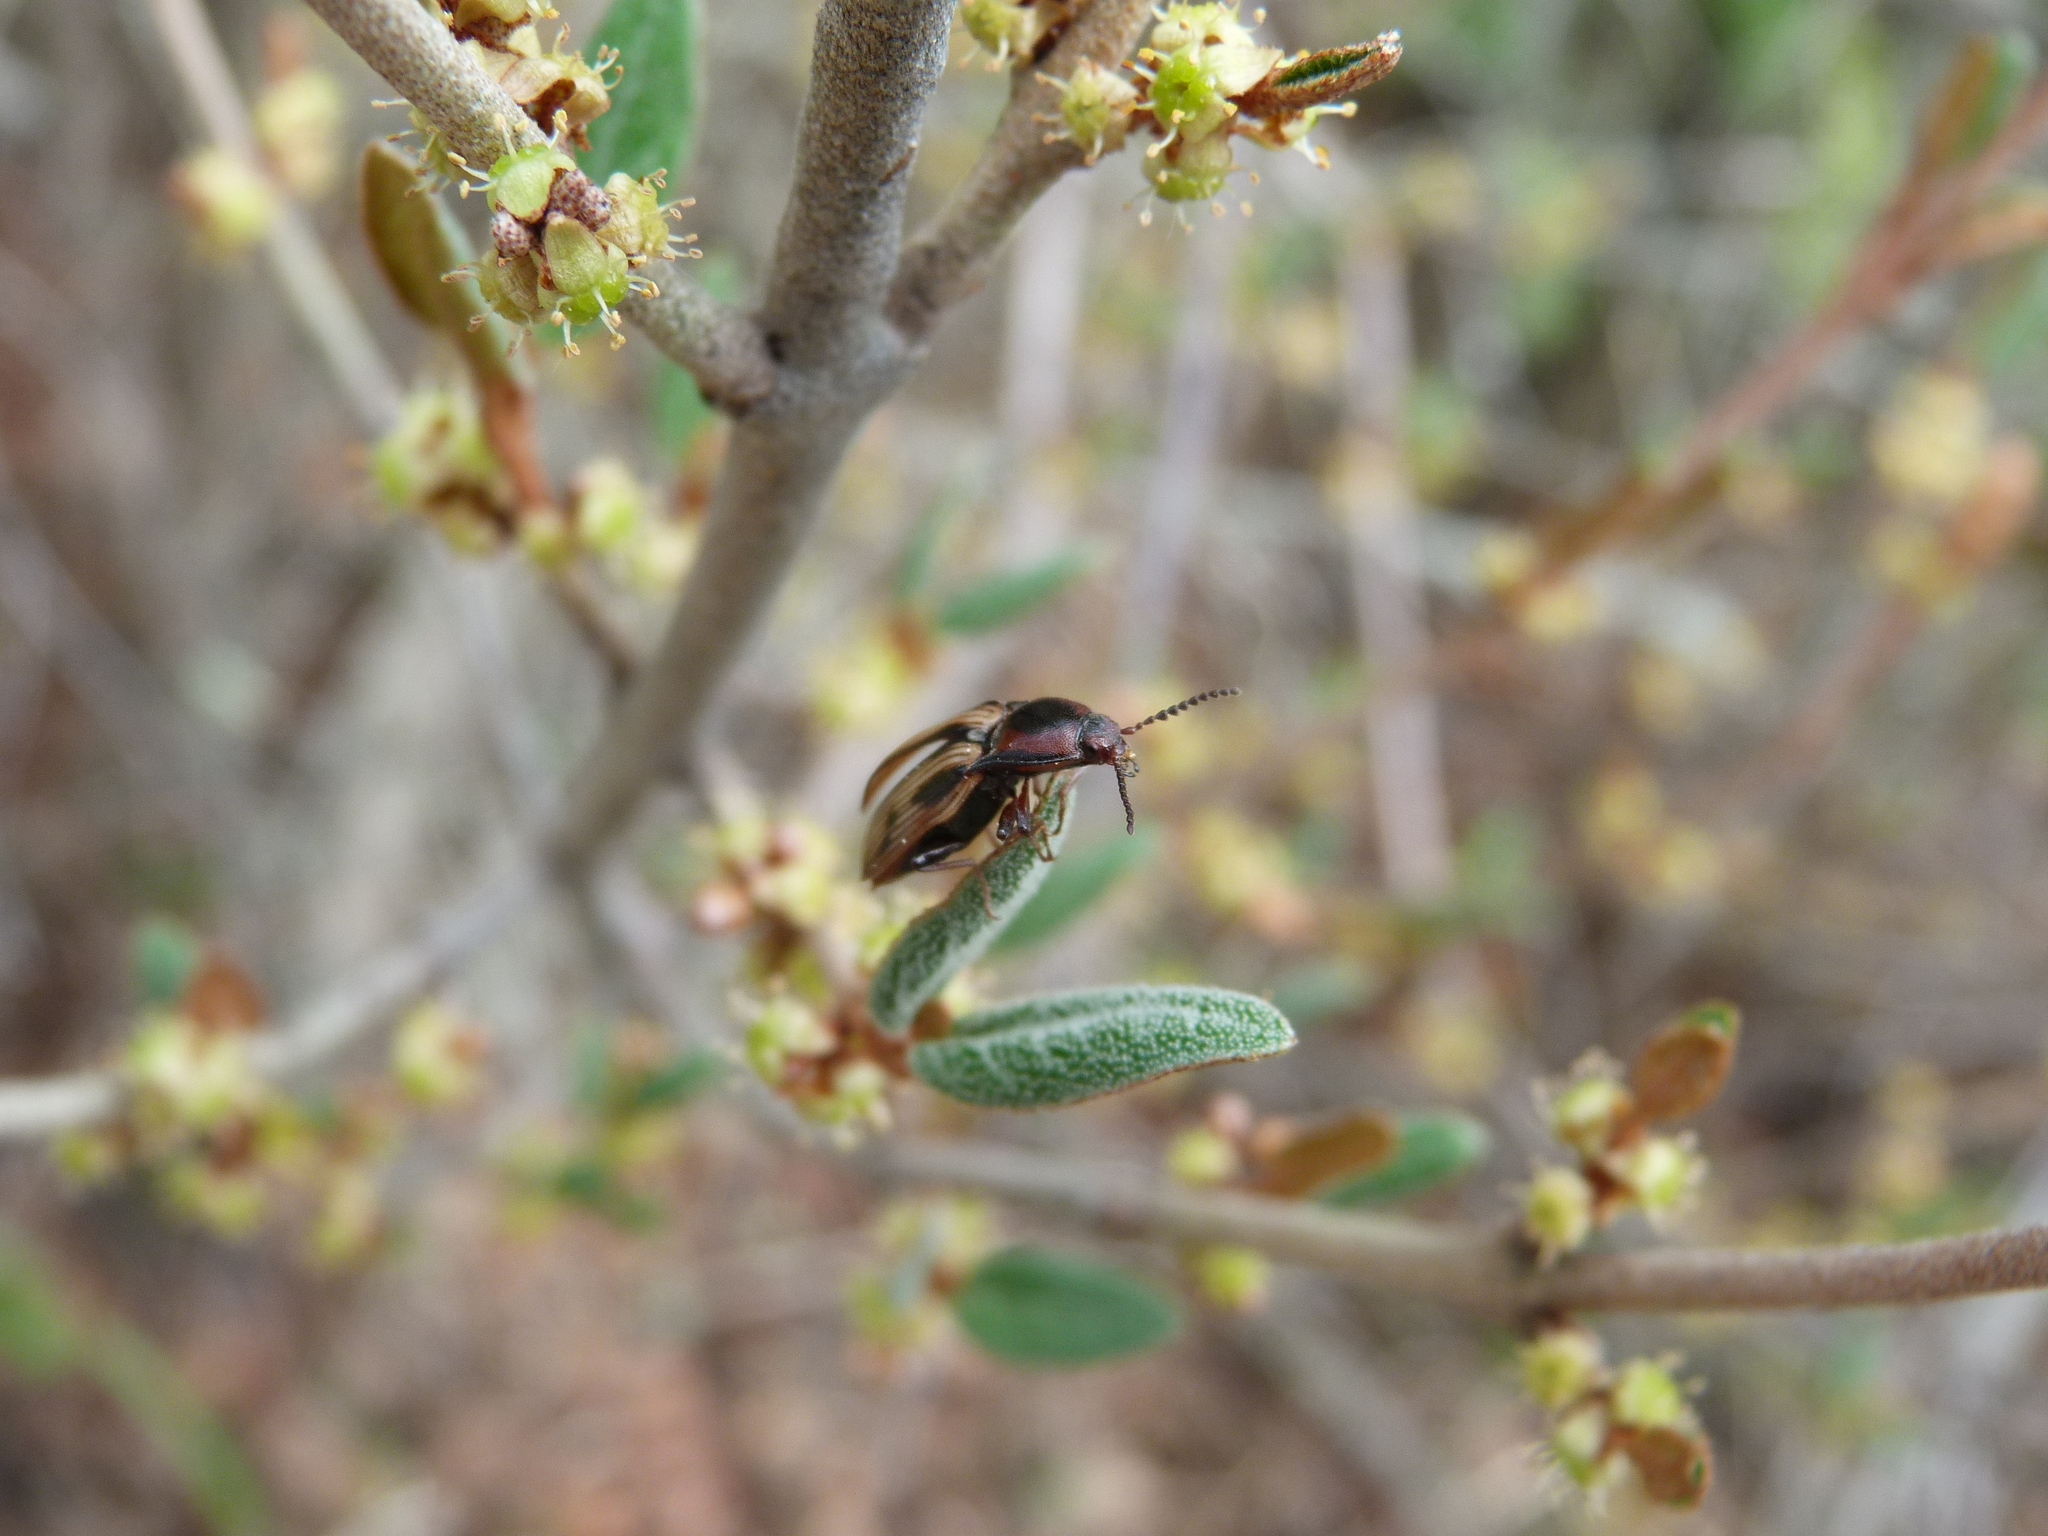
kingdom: Animalia
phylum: Arthropoda
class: Insecta
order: Coleoptera
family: Elateridae
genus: Selatosomus
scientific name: Selatosomus festivus
